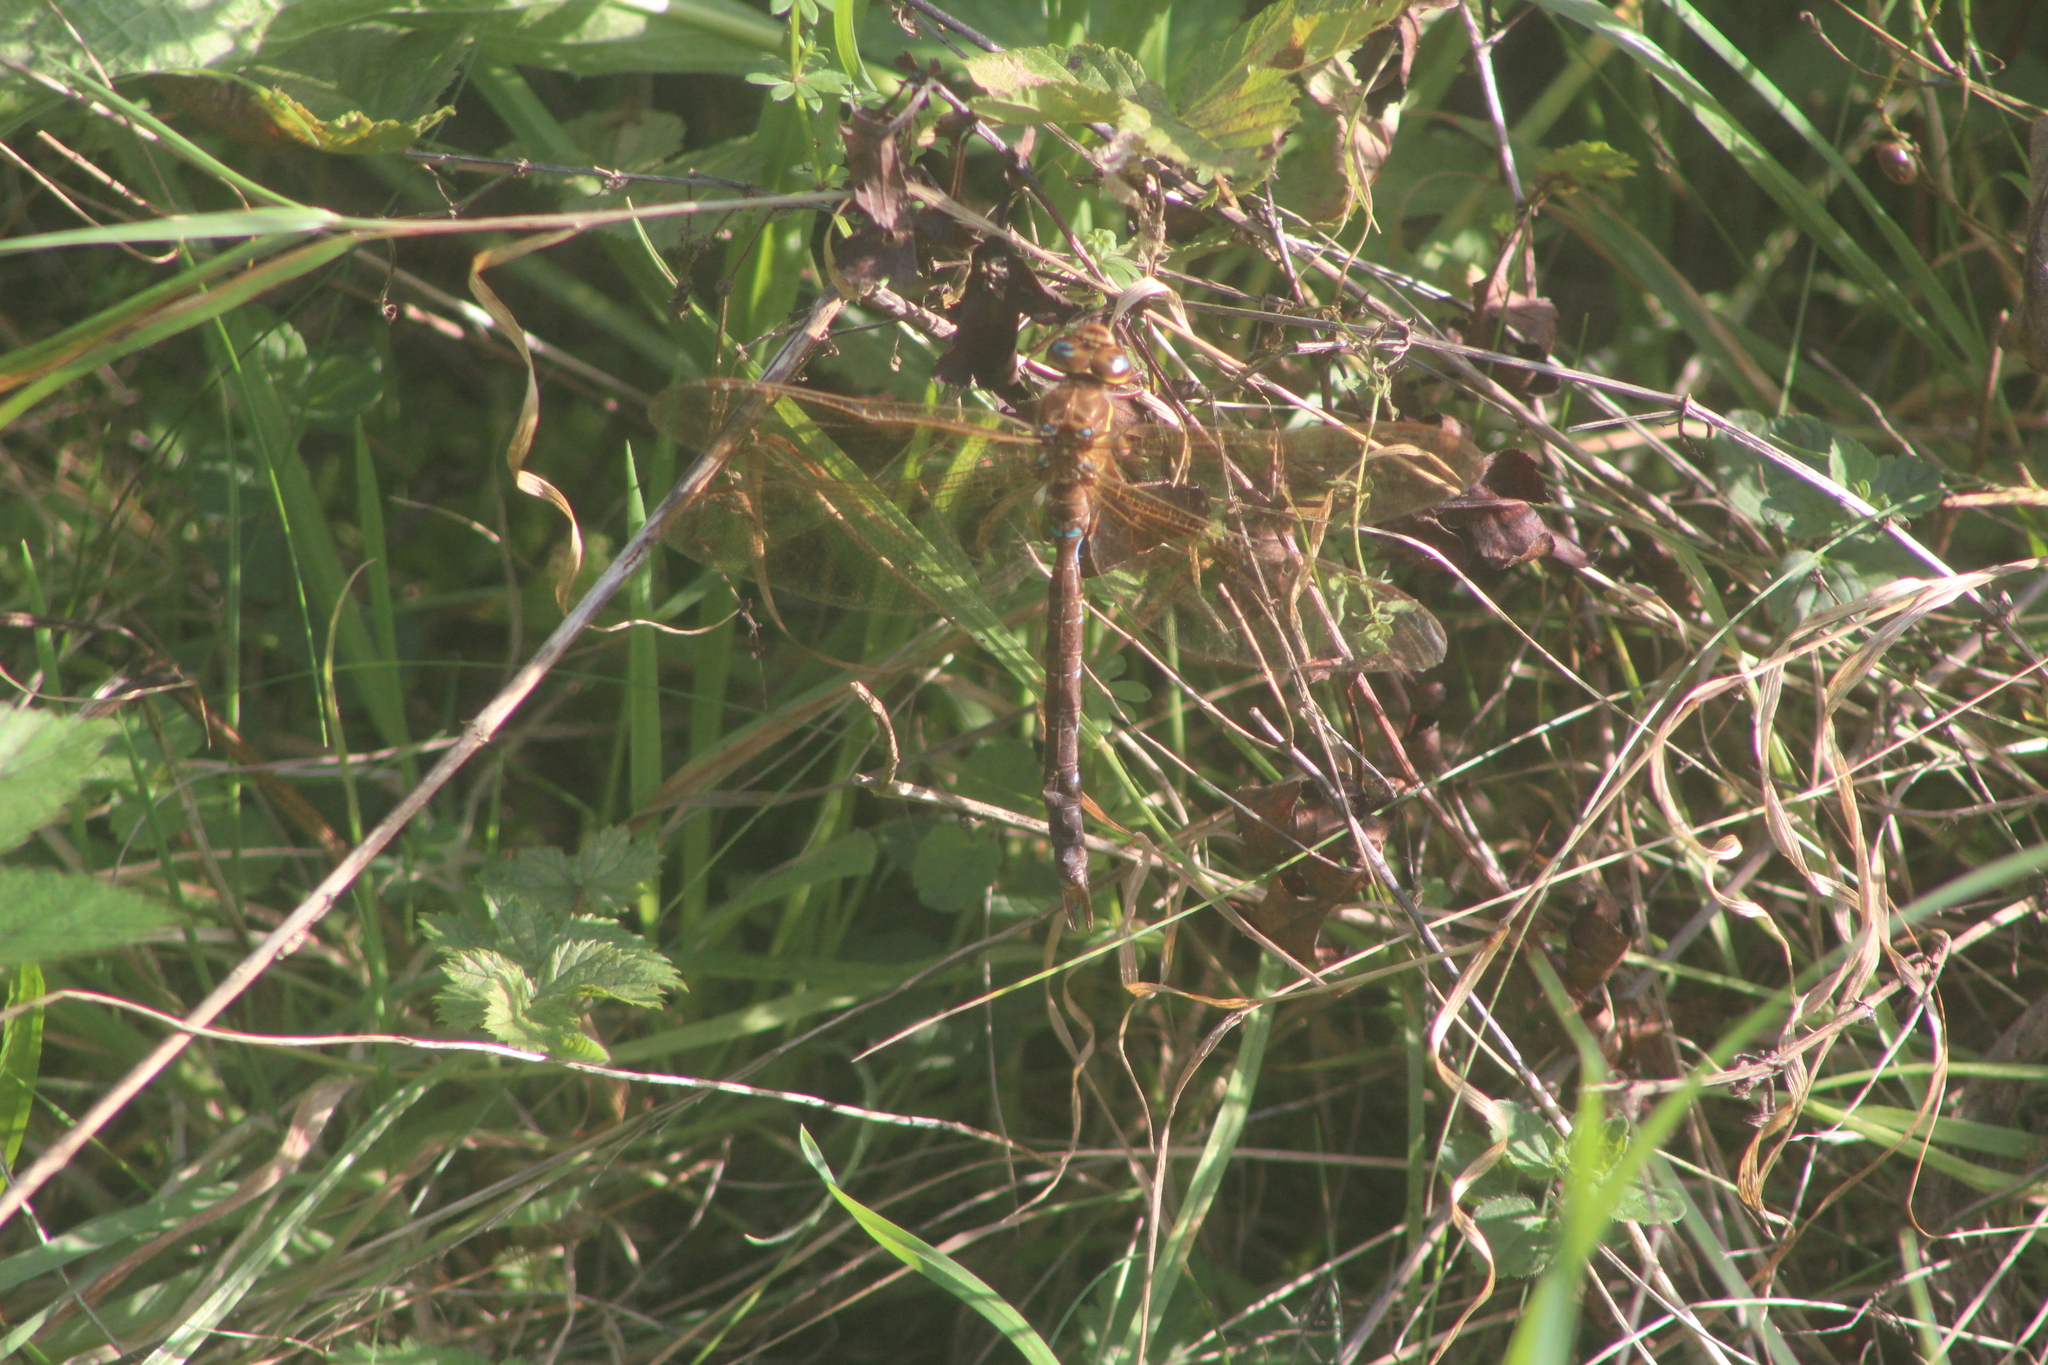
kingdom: Animalia
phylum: Arthropoda
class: Insecta
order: Odonata
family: Aeshnidae
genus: Aeshna
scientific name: Aeshna grandis
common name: Brown hawker
